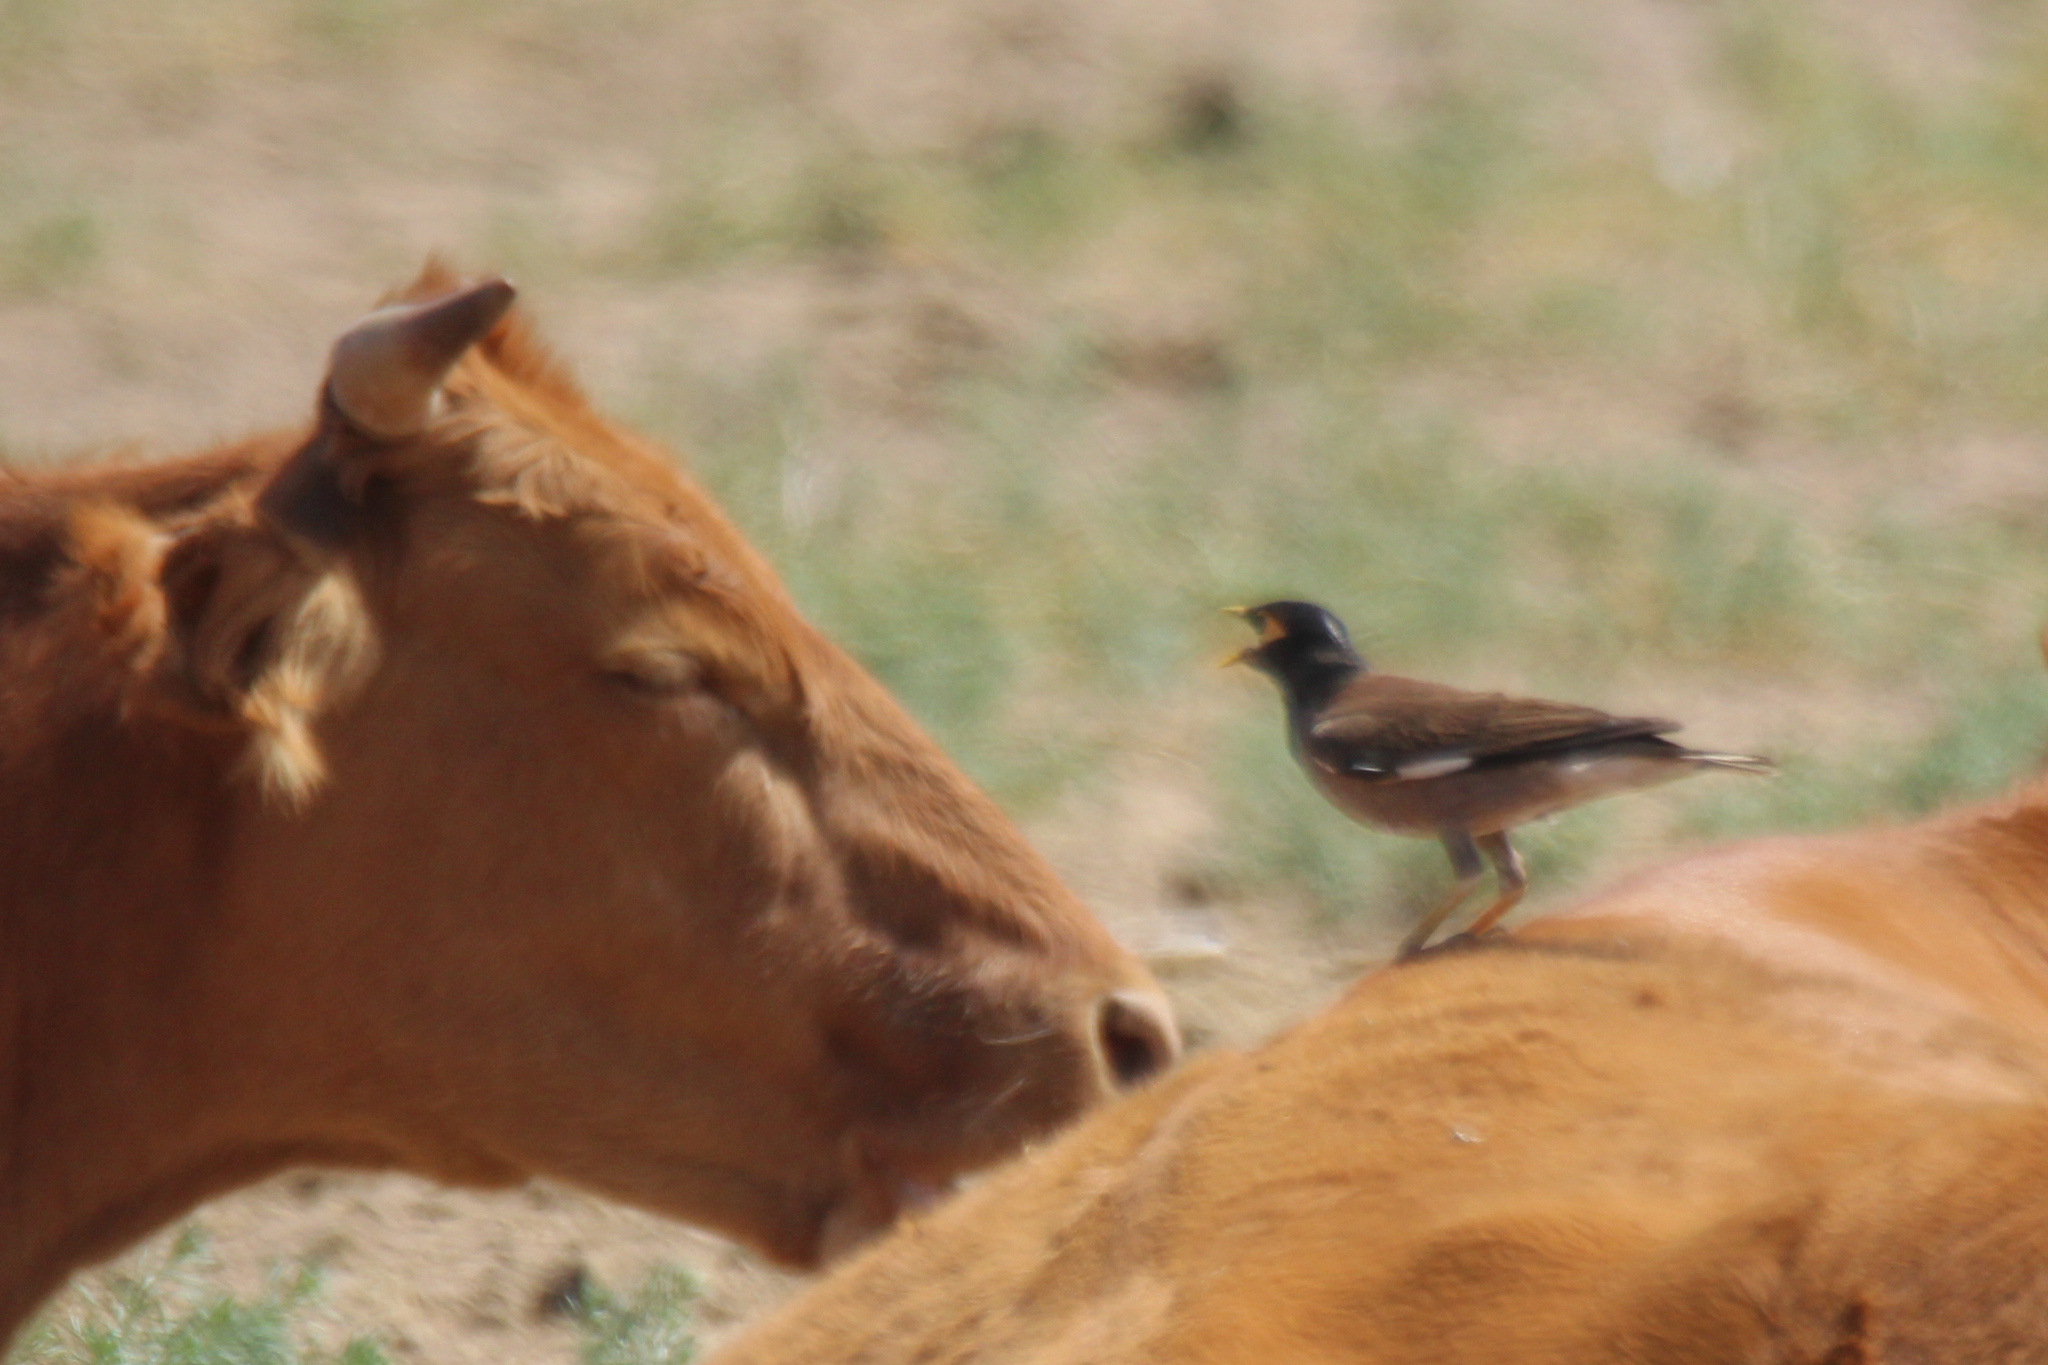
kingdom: Animalia
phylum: Chordata
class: Aves
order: Passeriformes
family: Sturnidae
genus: Acridotheres
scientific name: Acridotheres tristis
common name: Common myna
